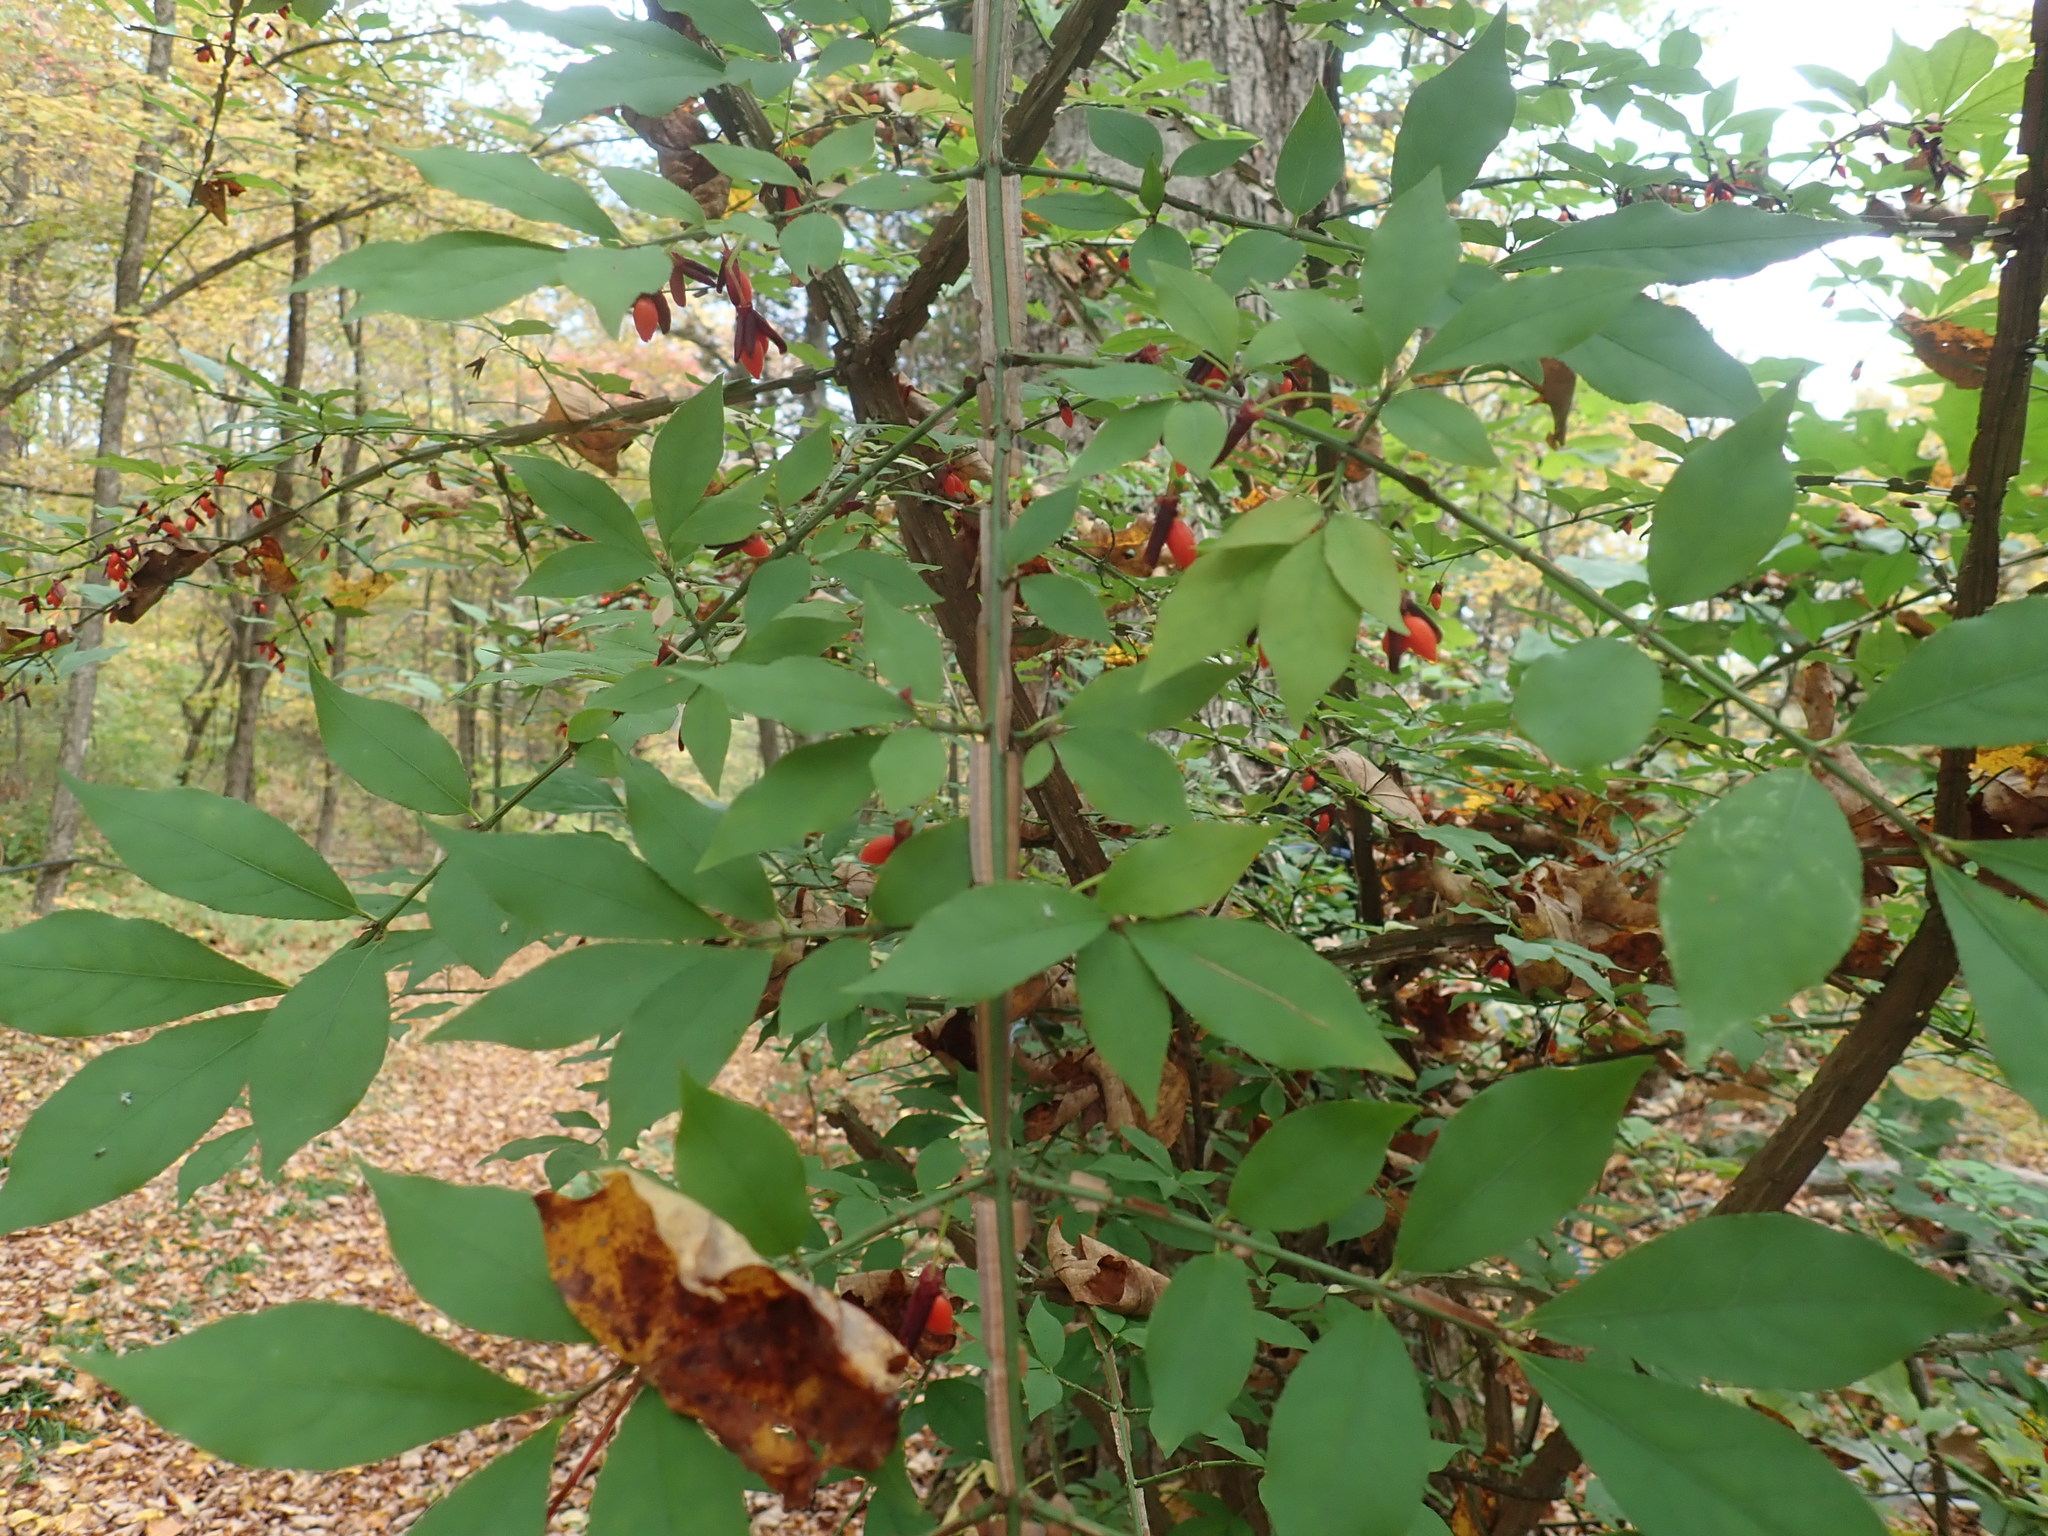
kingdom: Plantae
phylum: Tracheophyta
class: Magnoliopsida
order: Celastrales
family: Celastraceae
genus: Euonymus
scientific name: Euonymus alatus
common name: Winged euonymus
